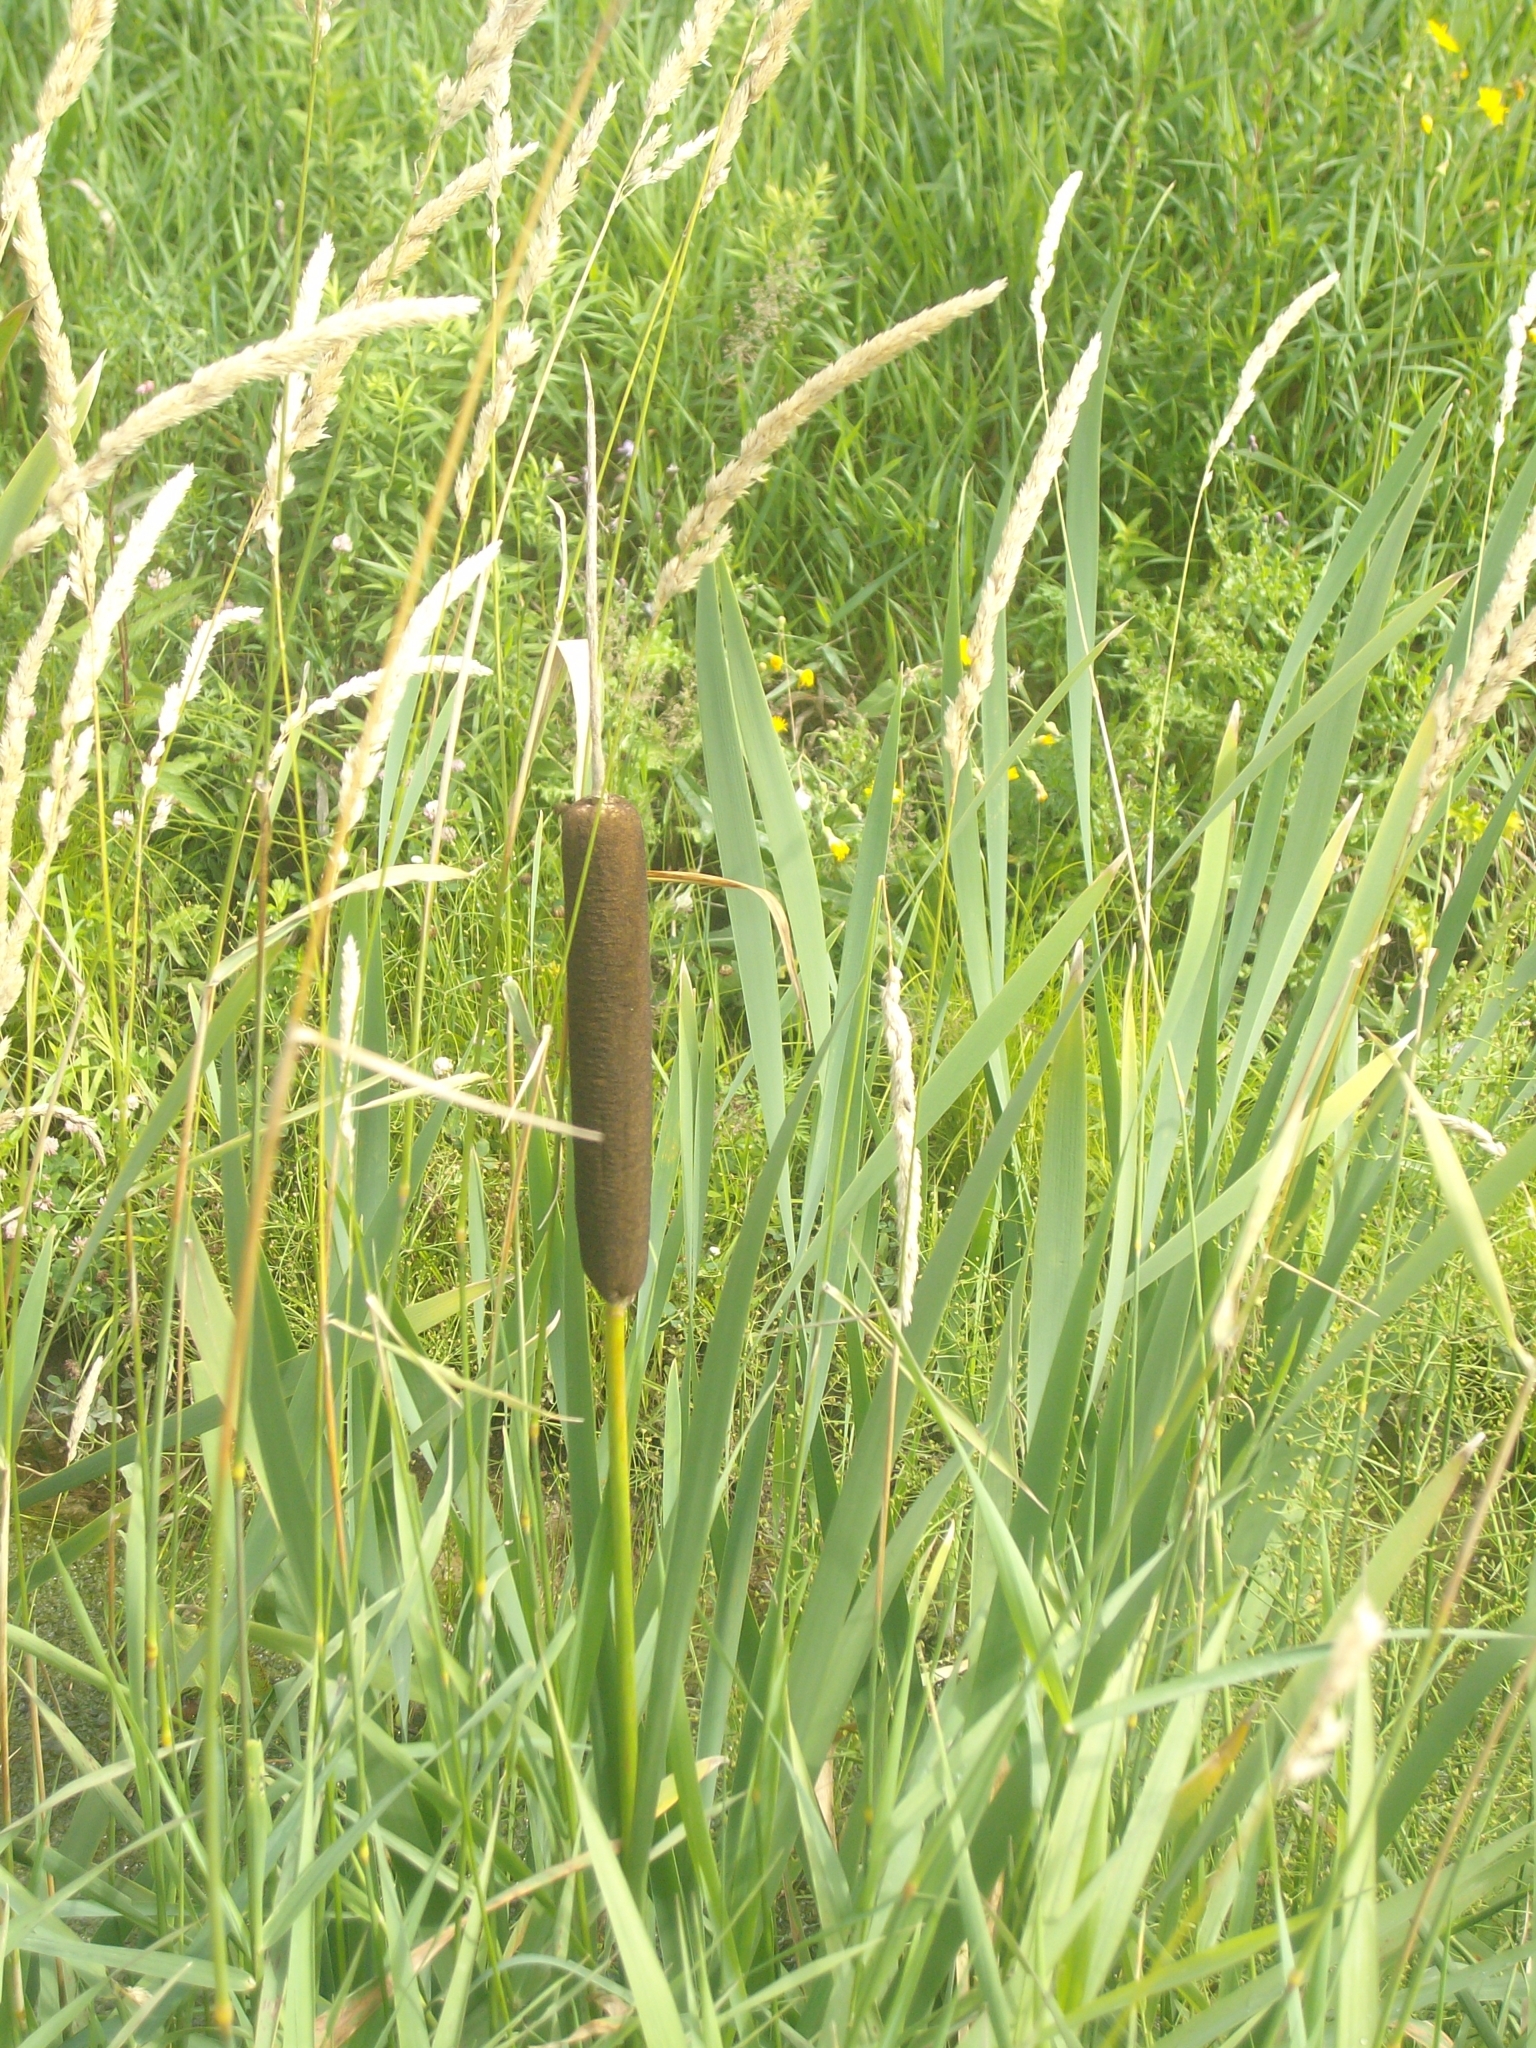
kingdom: Plantae
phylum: Tracheophyta
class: Liliopsida
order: Poales
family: Typhaceae
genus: Typha
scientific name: Typha latifolia
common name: Broadleaf cattail
